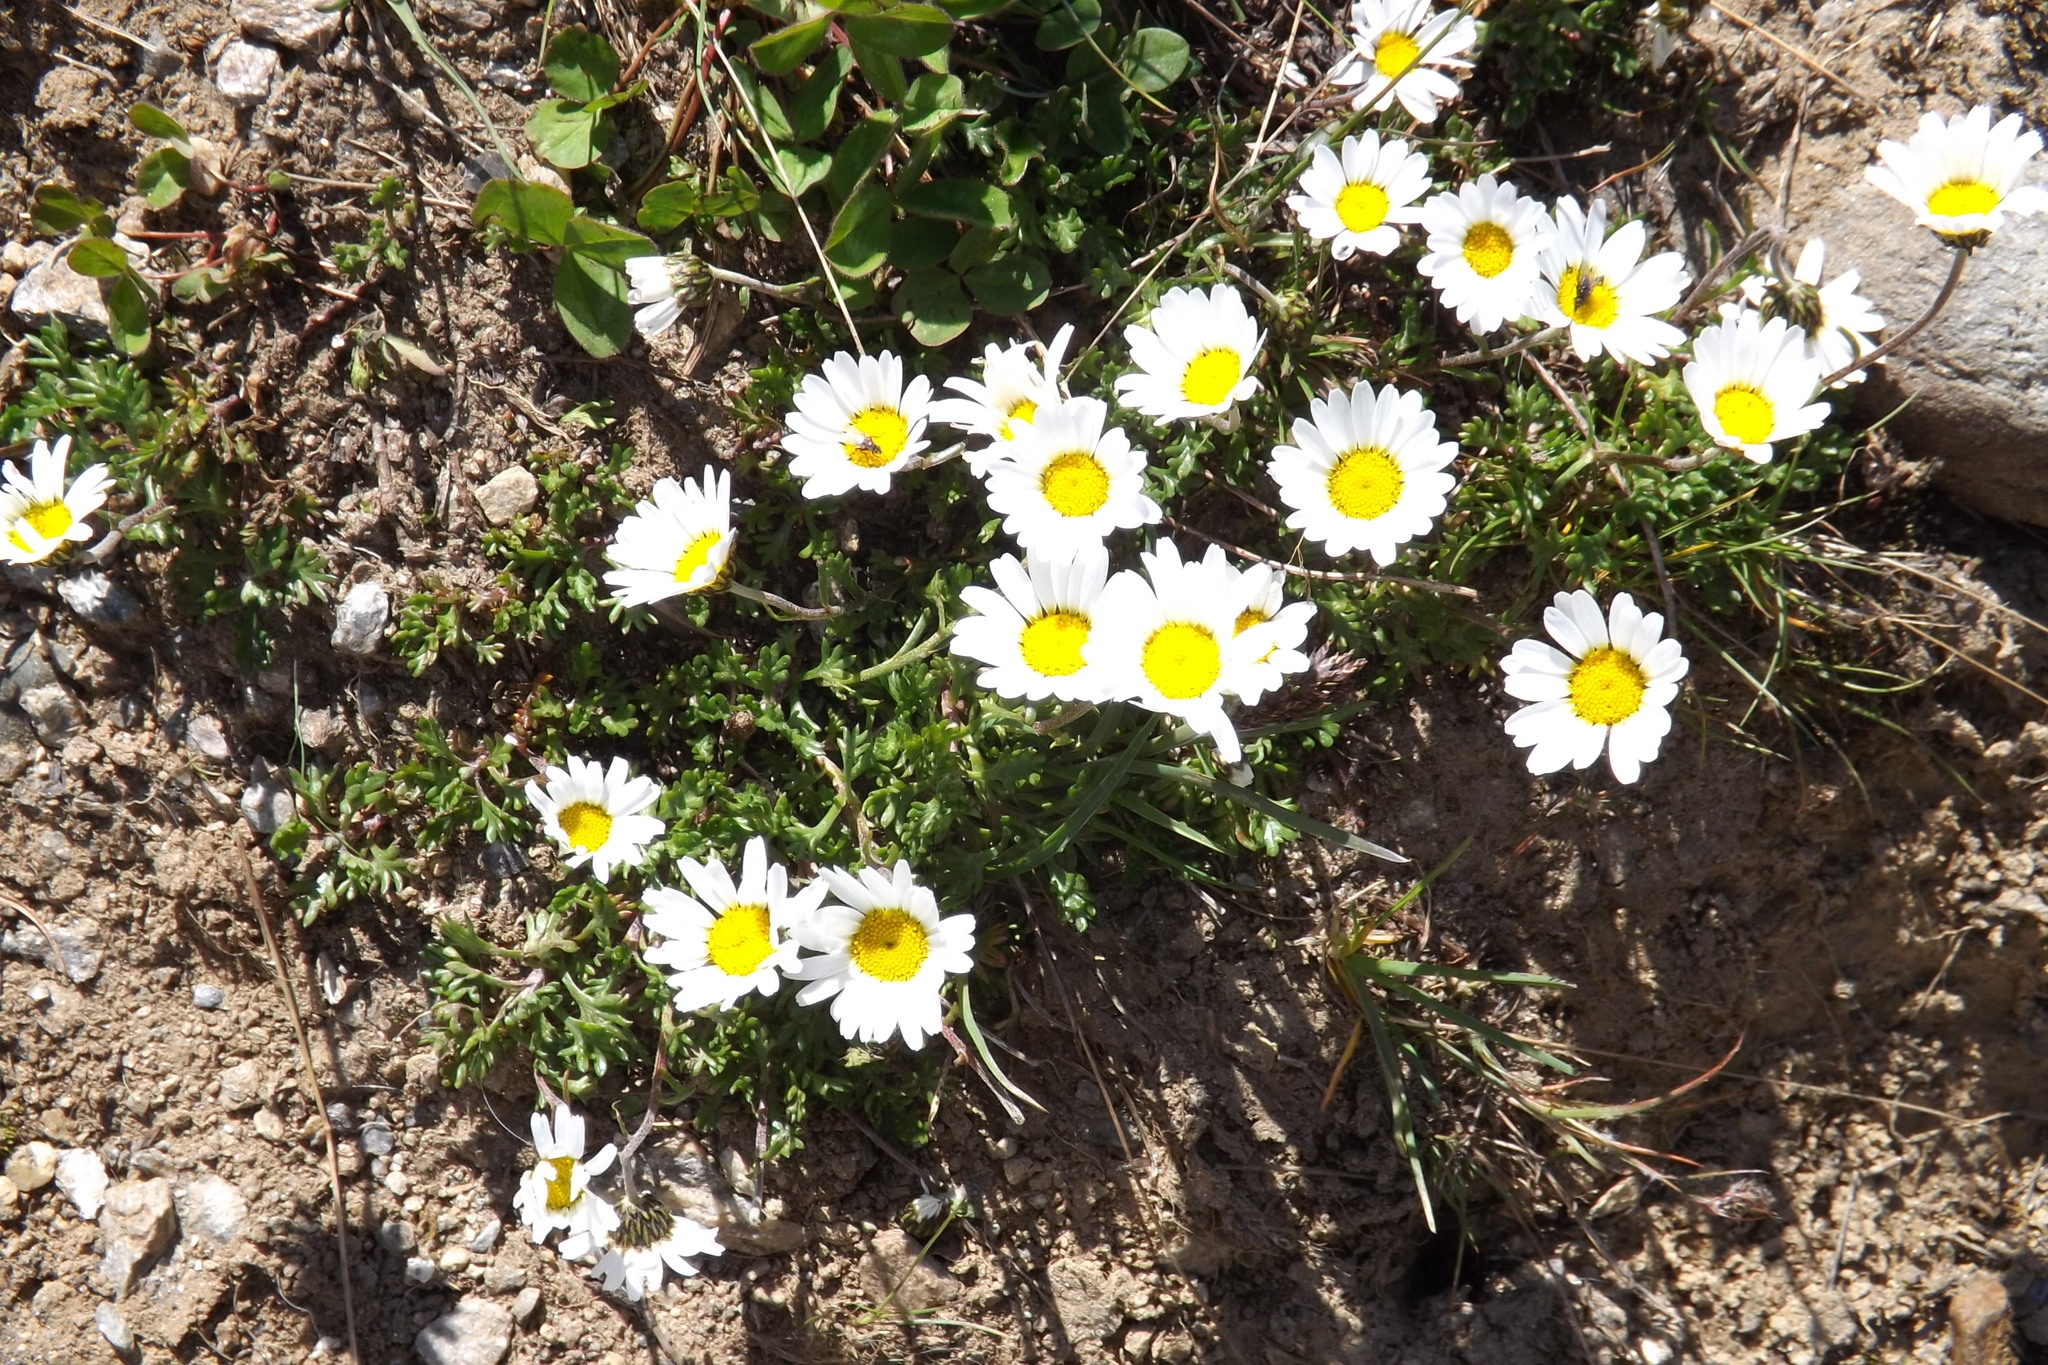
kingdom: Plantae
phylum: Tracheophyta
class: Magnoliopsida
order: Asterales
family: Asteraceae
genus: Leucanthemopsis
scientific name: Leucanthemopsis alpina
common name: Alpine moon daisy
